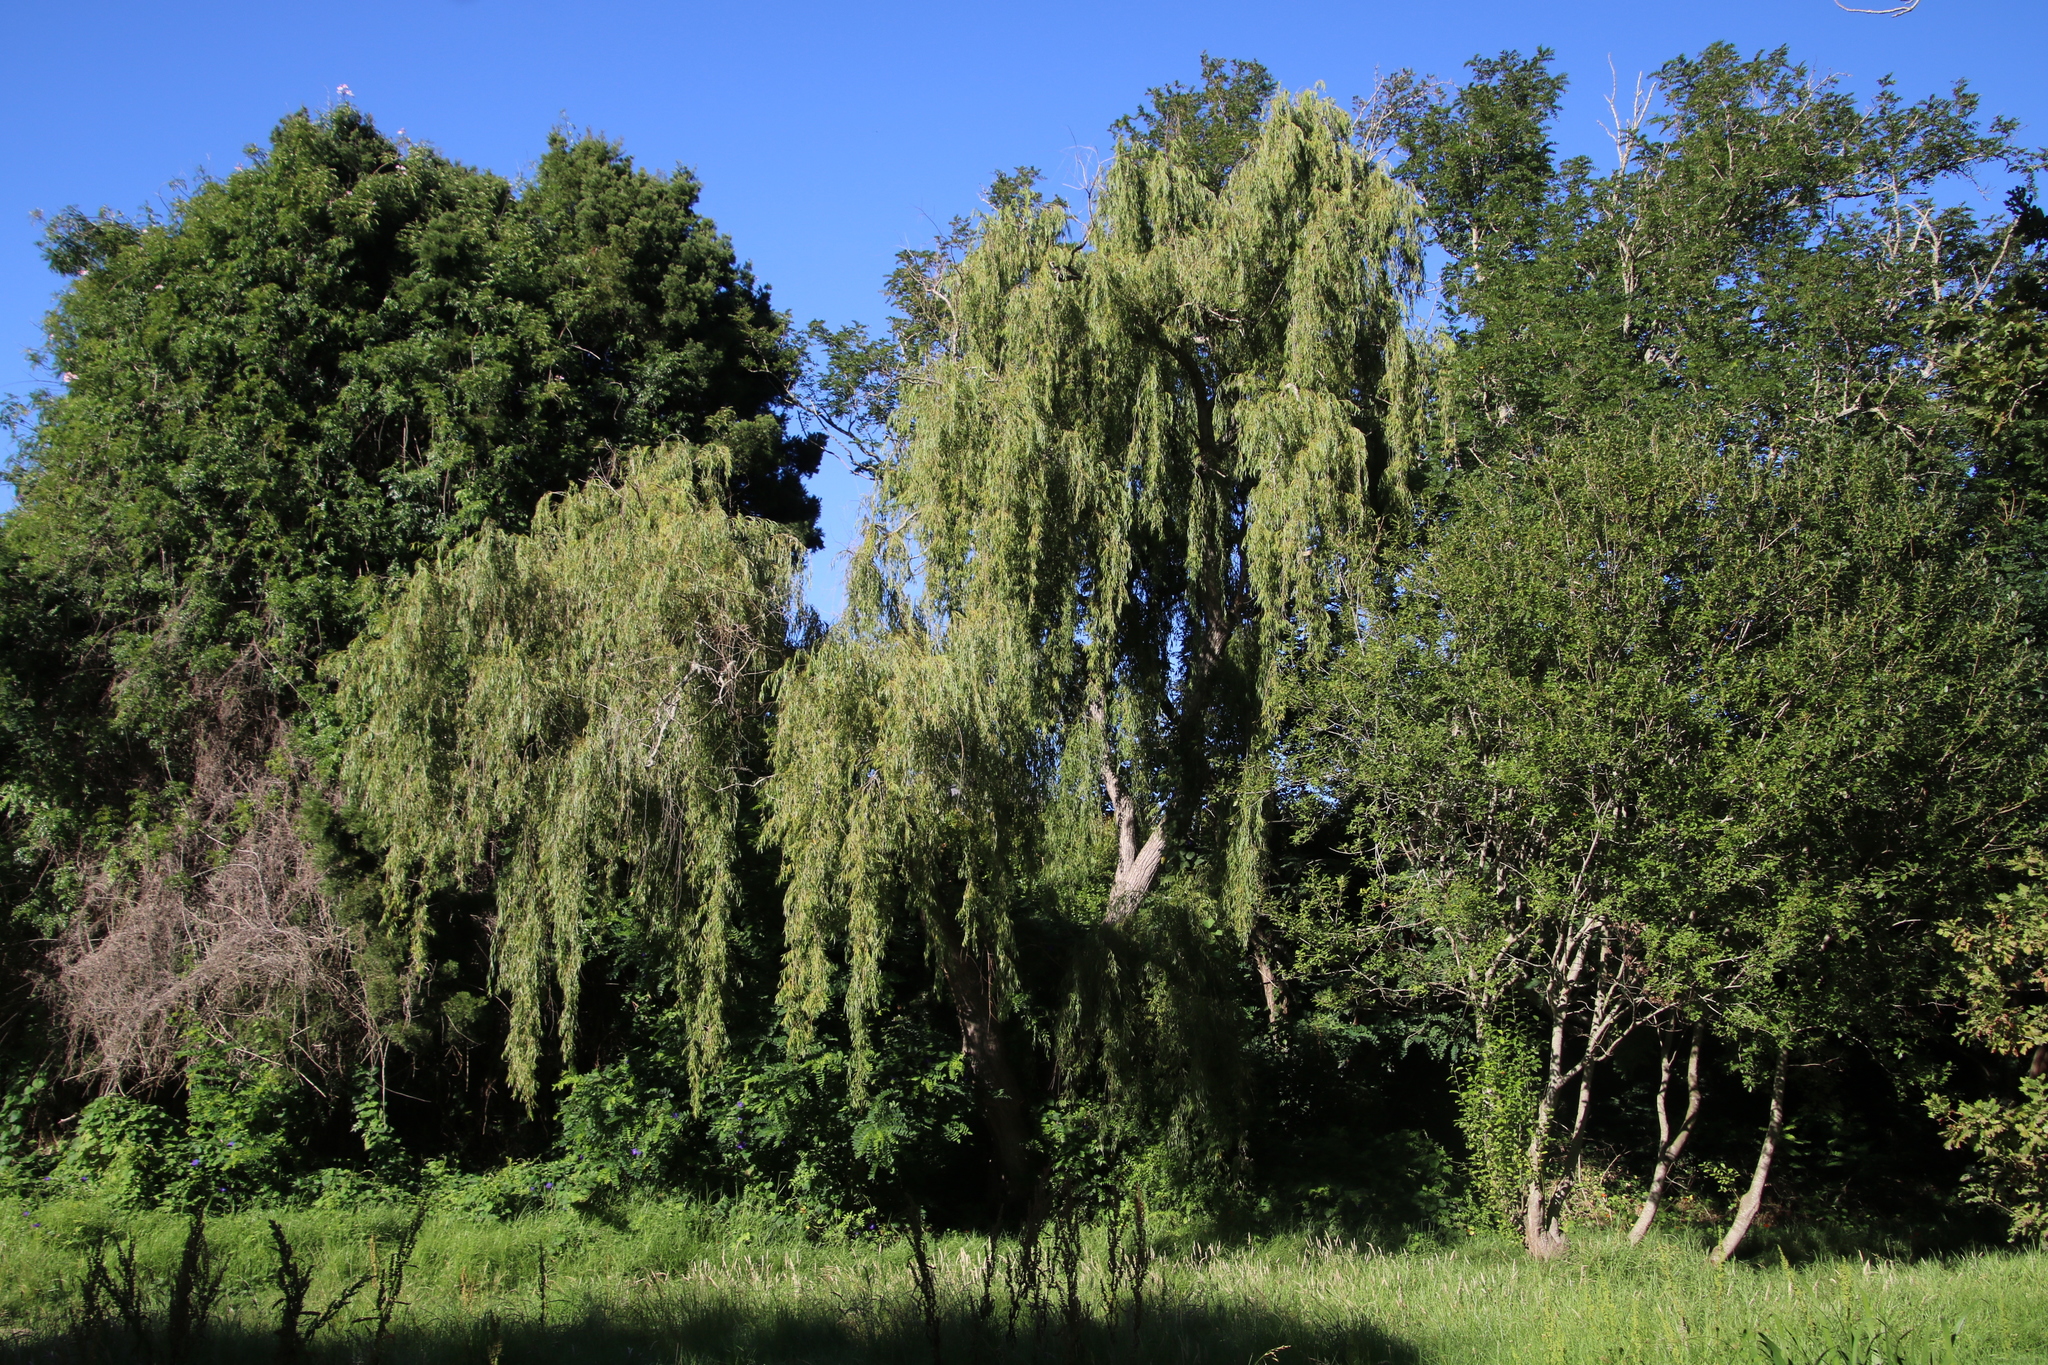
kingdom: Plantae
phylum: Tracheophyta
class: Magnoliopsida
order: Malpighiales
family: Salicaceae
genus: Salix
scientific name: Salix babylonica
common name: Weeping willow
